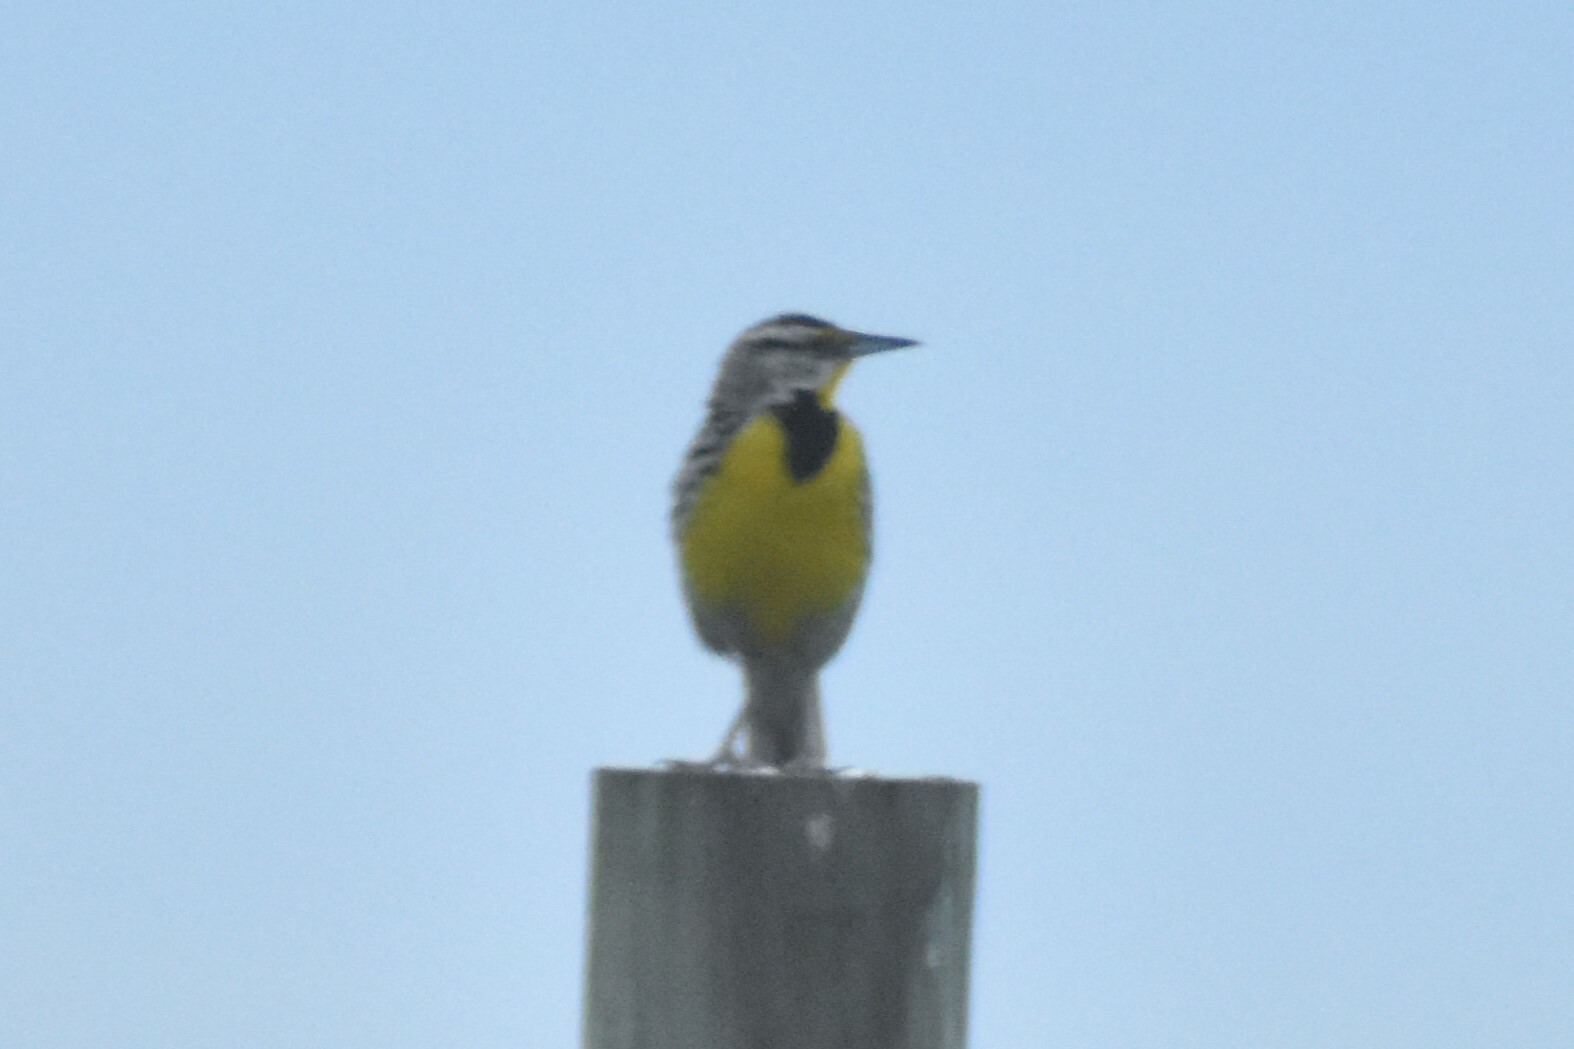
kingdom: Animalia
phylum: Chordata
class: Aves
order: Passeriformes
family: Icteridae
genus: Sturnella
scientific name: Sturnella magna
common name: Eastern meadowlark
